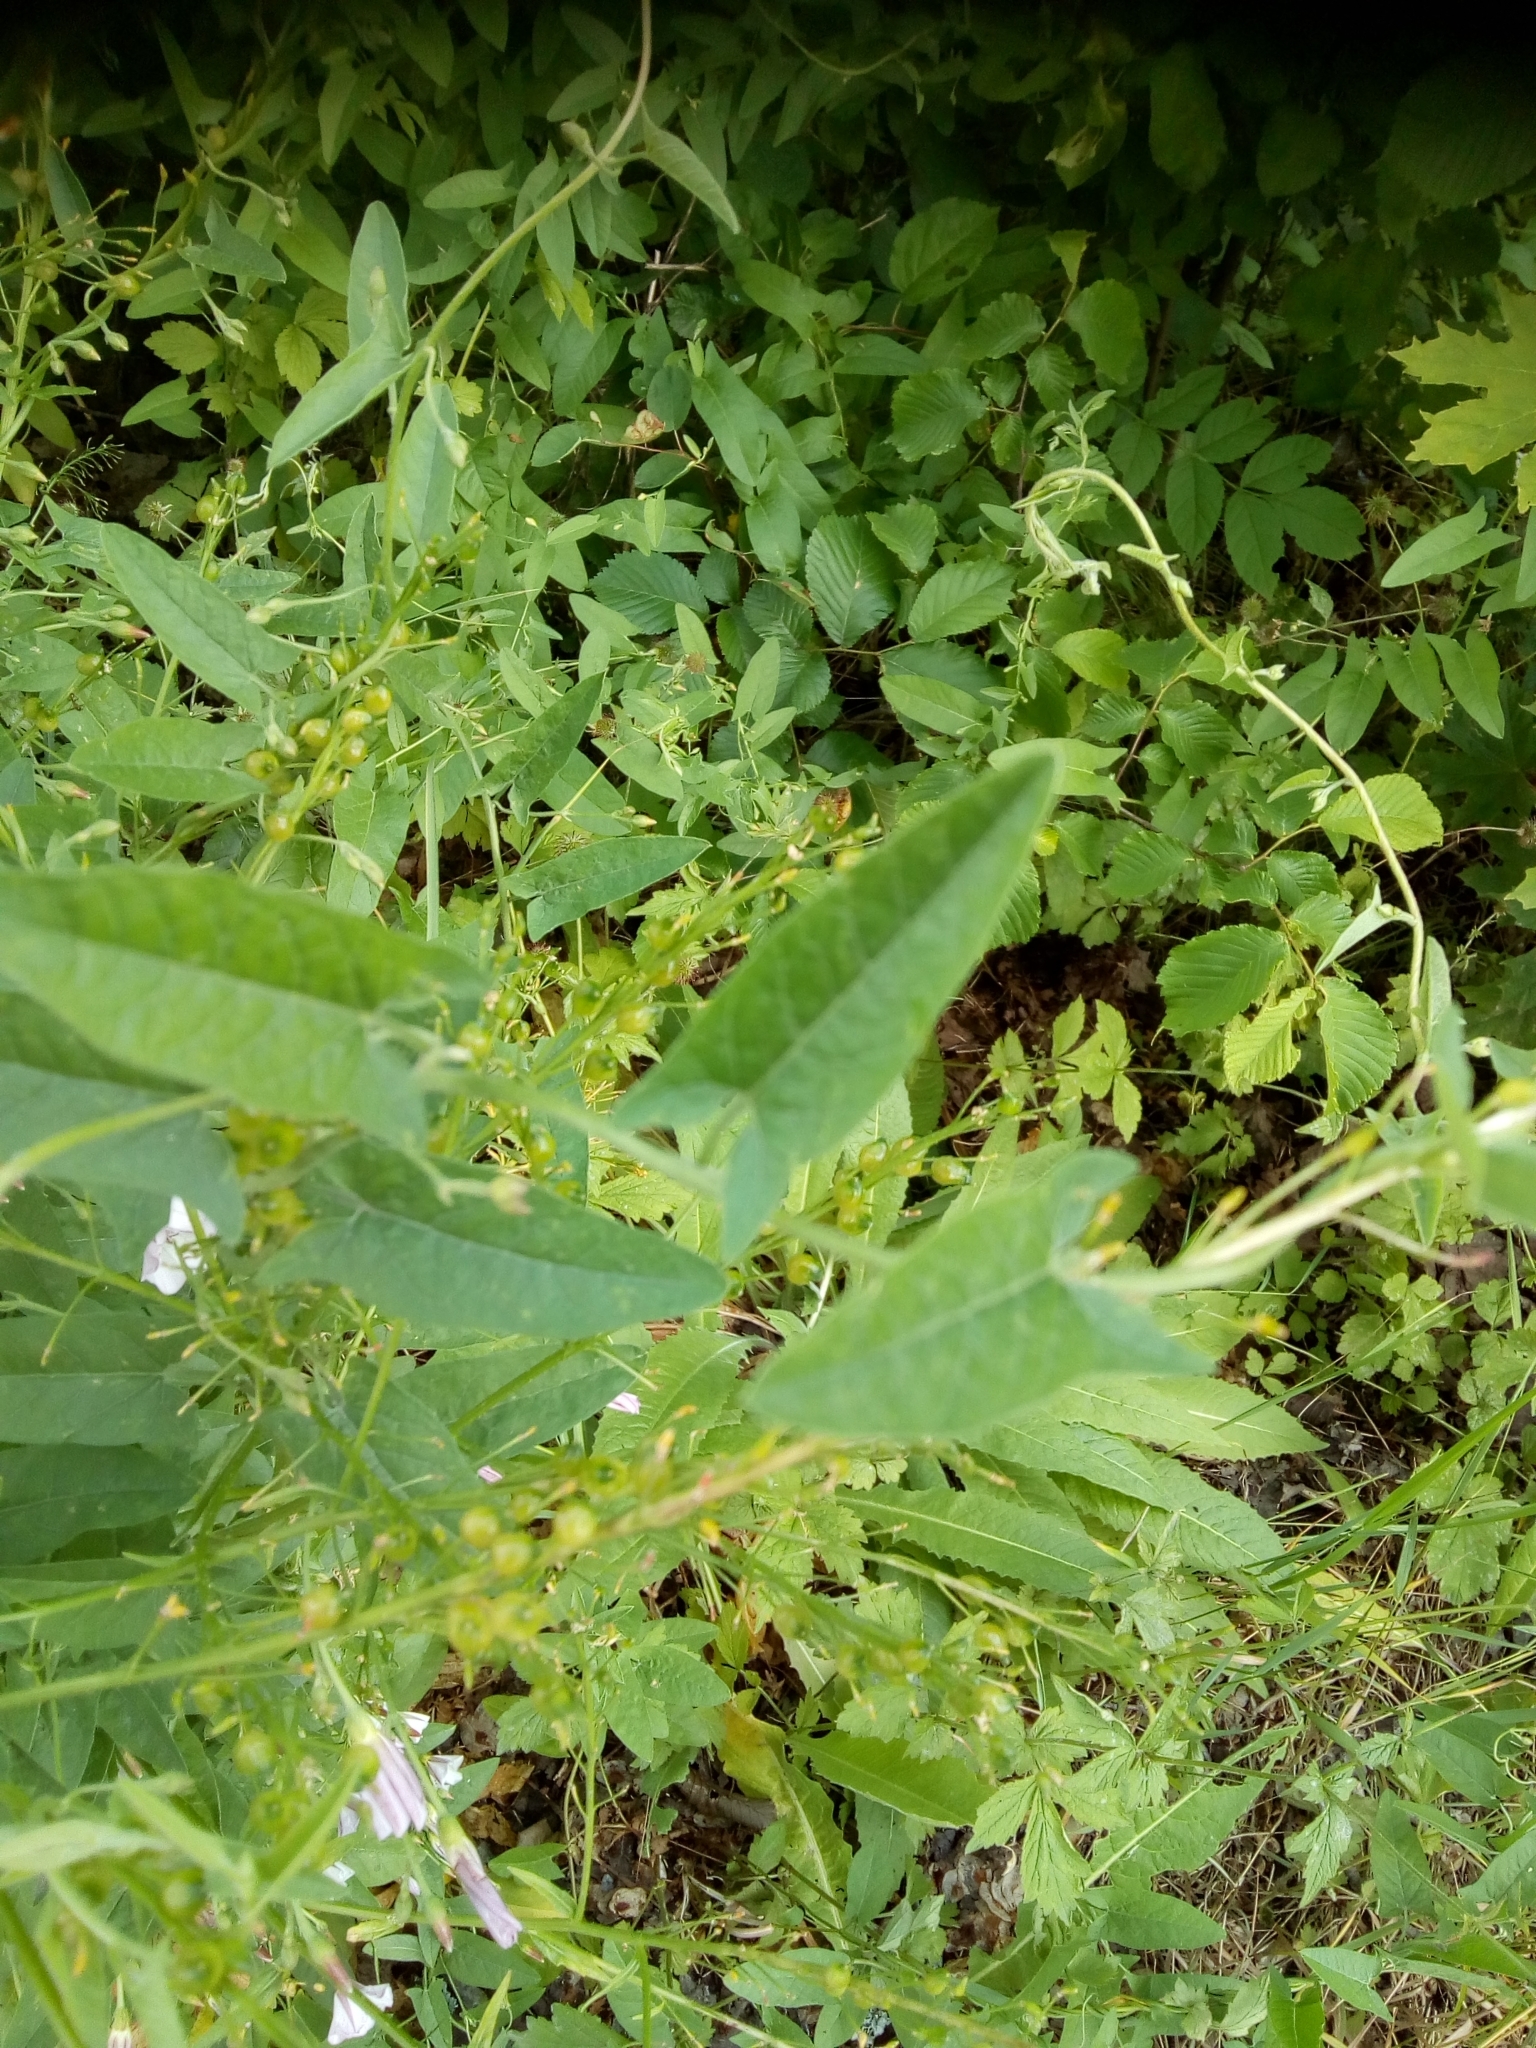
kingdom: Plantae
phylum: Tracheophyta
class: Magnoliopsida
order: Solanales
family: Convolvulaceae
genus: Convolvulus
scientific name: Convolvulus arvensis
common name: Field bindweed
